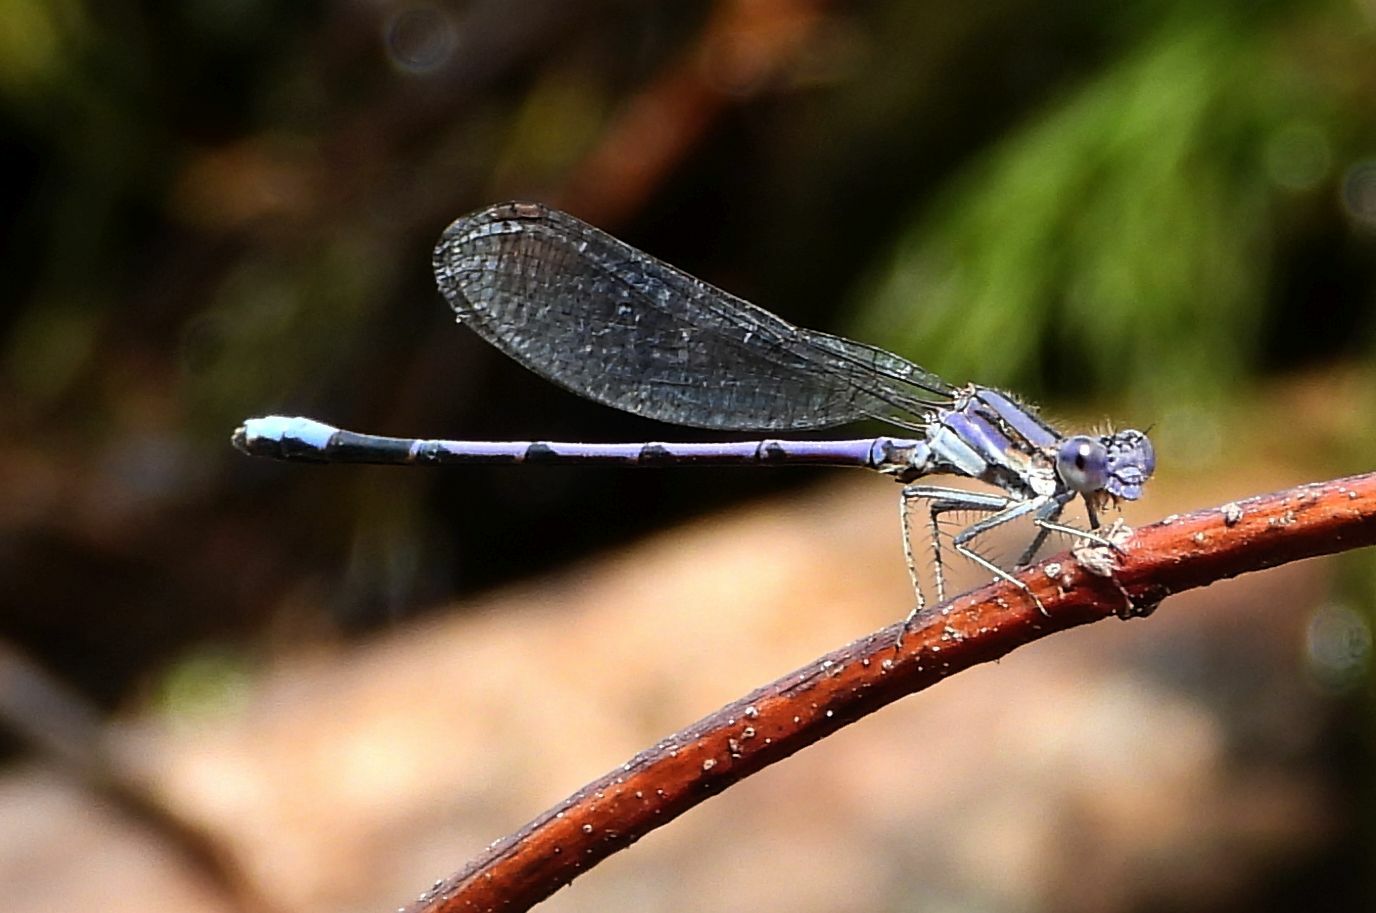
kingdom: Animalia
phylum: Arthropoda
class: Insecta
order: Odonata
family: Coenagrionidae
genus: Argia
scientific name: Argia fumipennis
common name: Variable dancer
